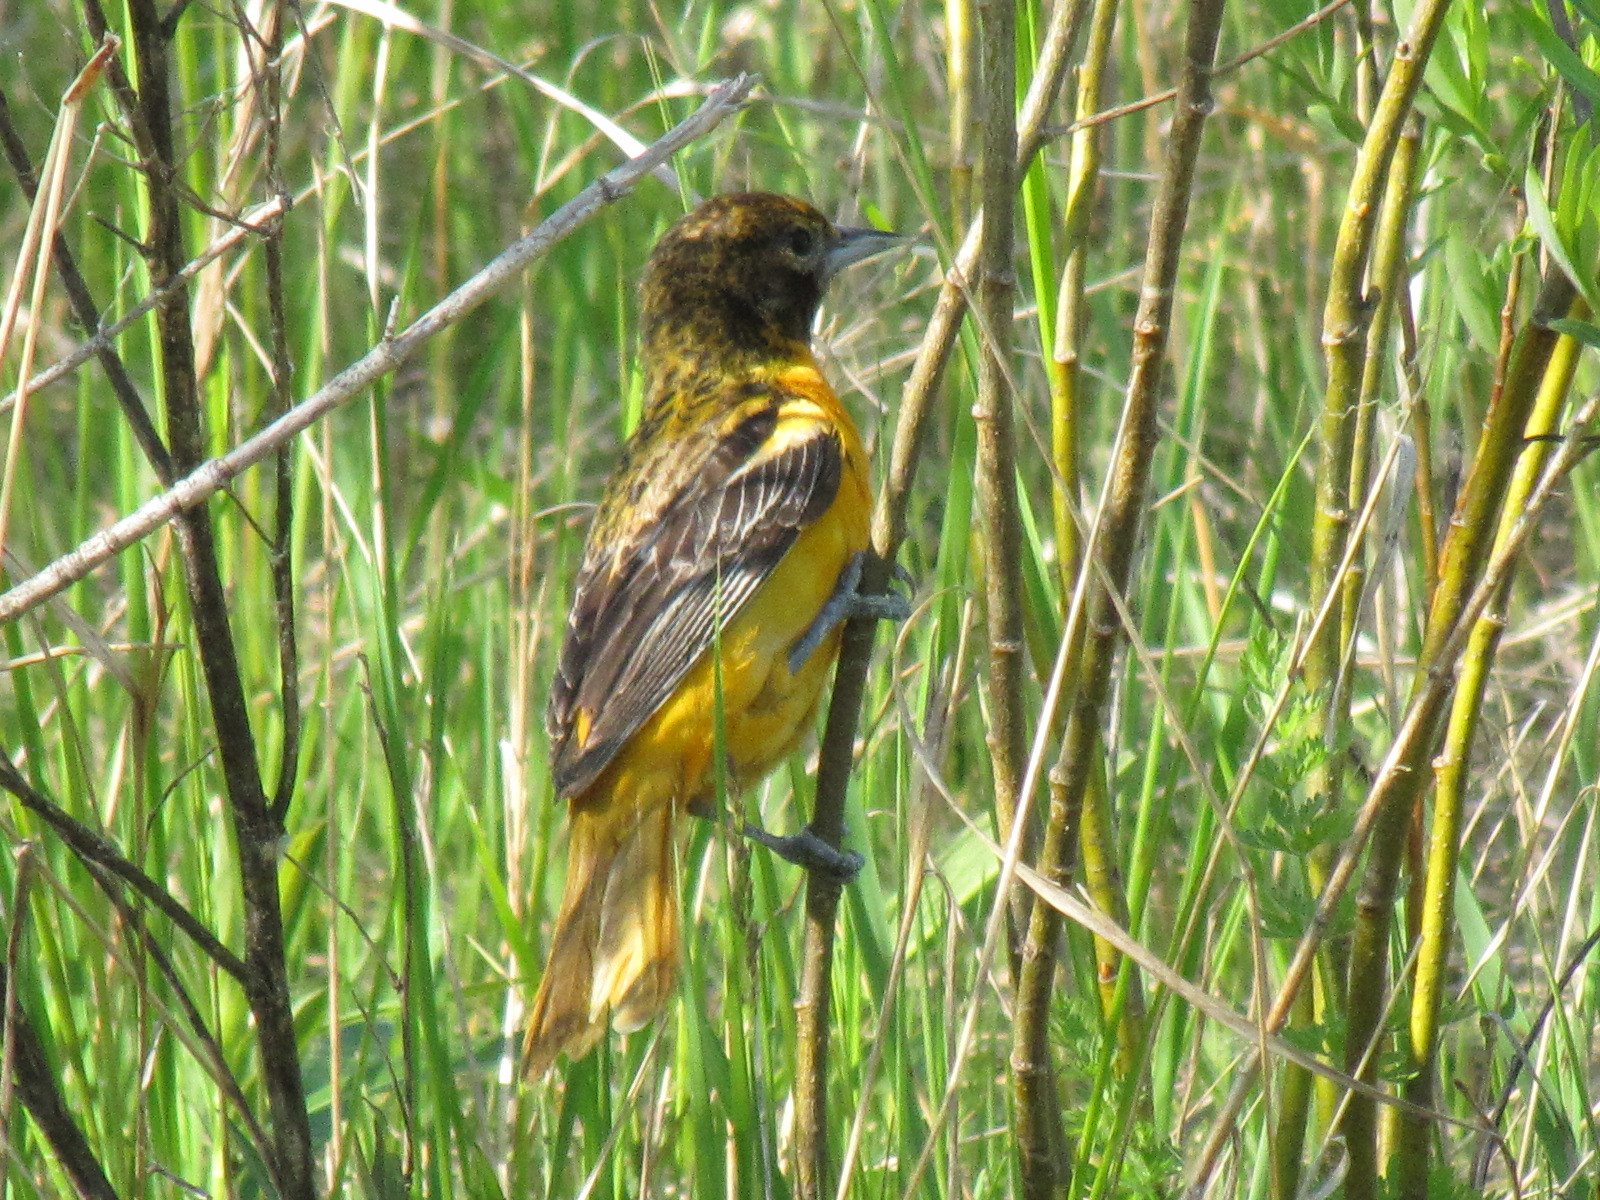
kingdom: Animalia
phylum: Chordata
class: Aves
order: Passeriformes
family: Icteridae
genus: Icterus
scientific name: Icterus galbula
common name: Baltimore oriole
